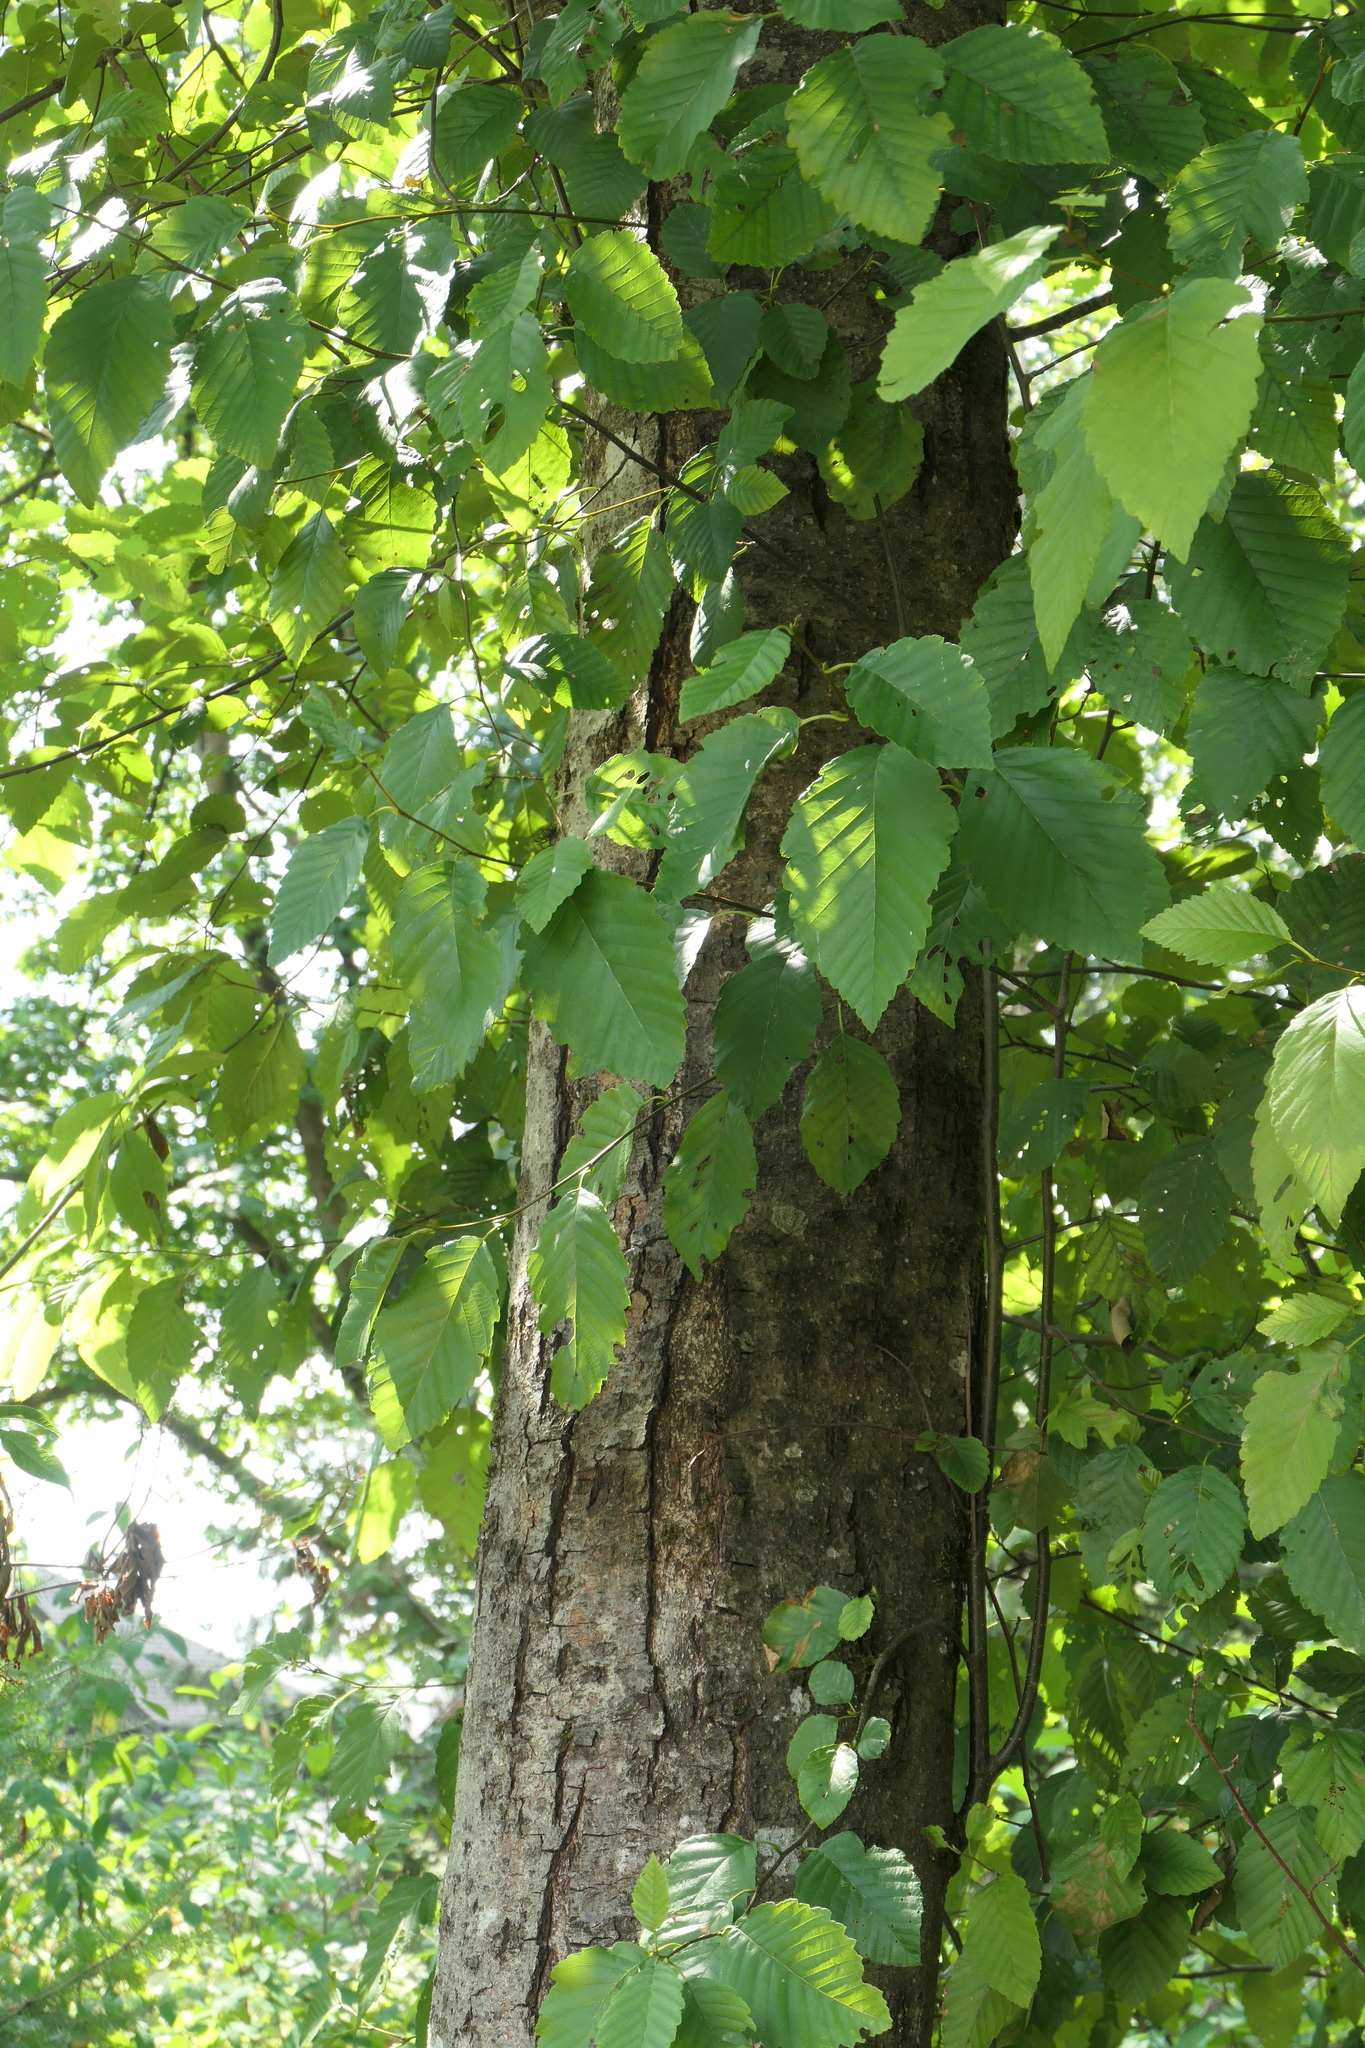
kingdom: Plantae
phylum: Tracheophyta
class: Magnoliopsida
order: Fagales
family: Betulaceae
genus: Alnus
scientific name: Alnus rubra
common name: Red alder
